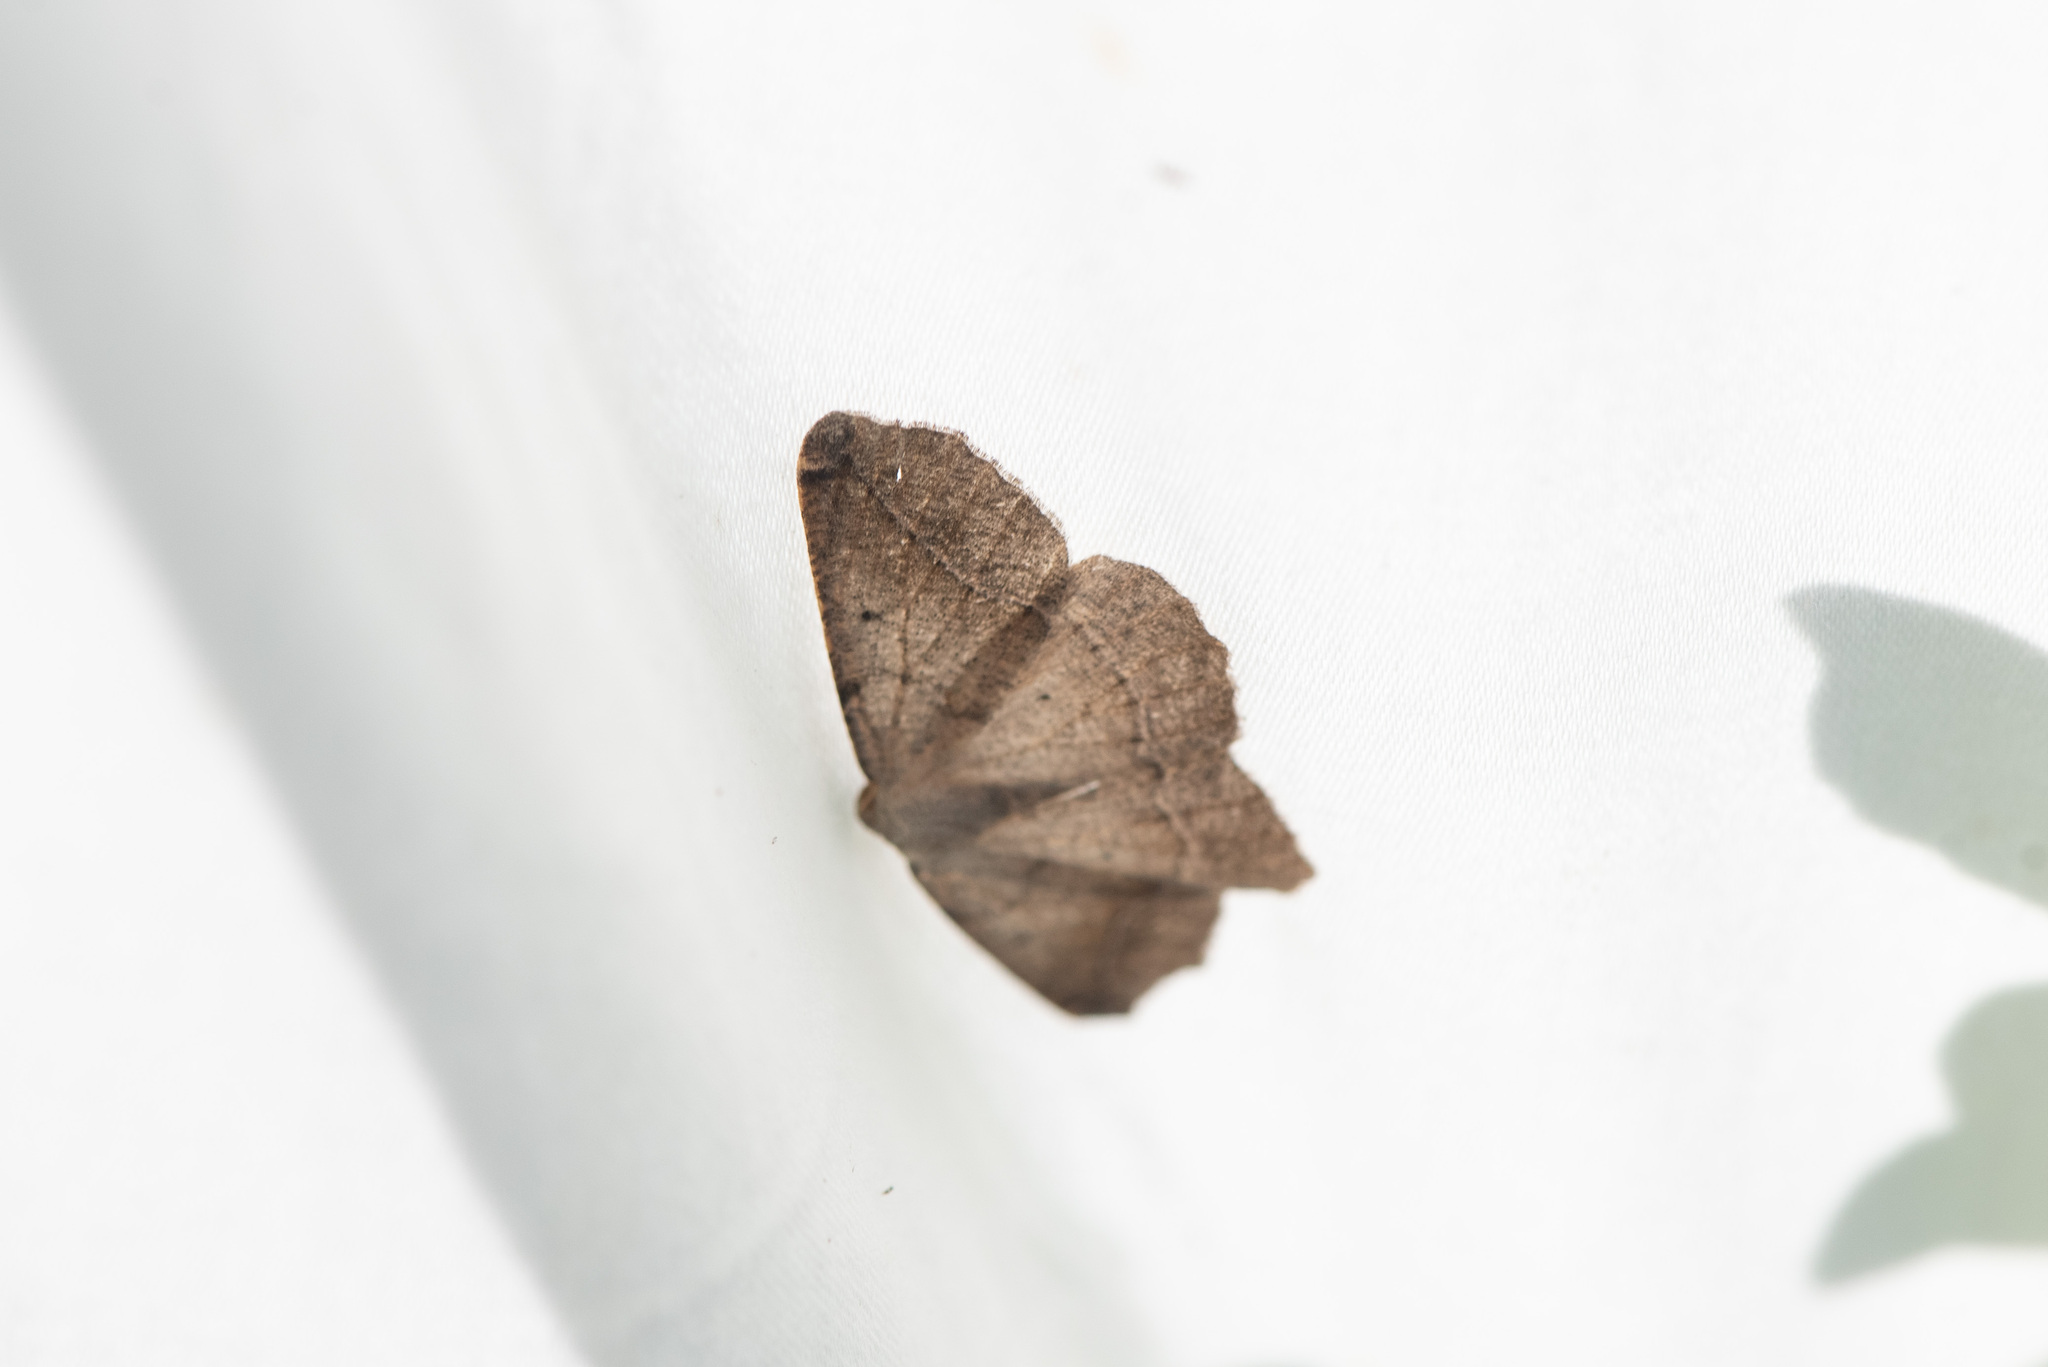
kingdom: Animalia
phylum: Arthropoda
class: Insecta
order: Lepidoptera
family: Geometridae
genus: Prochoerodes
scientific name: Prochoerodes forficaria
